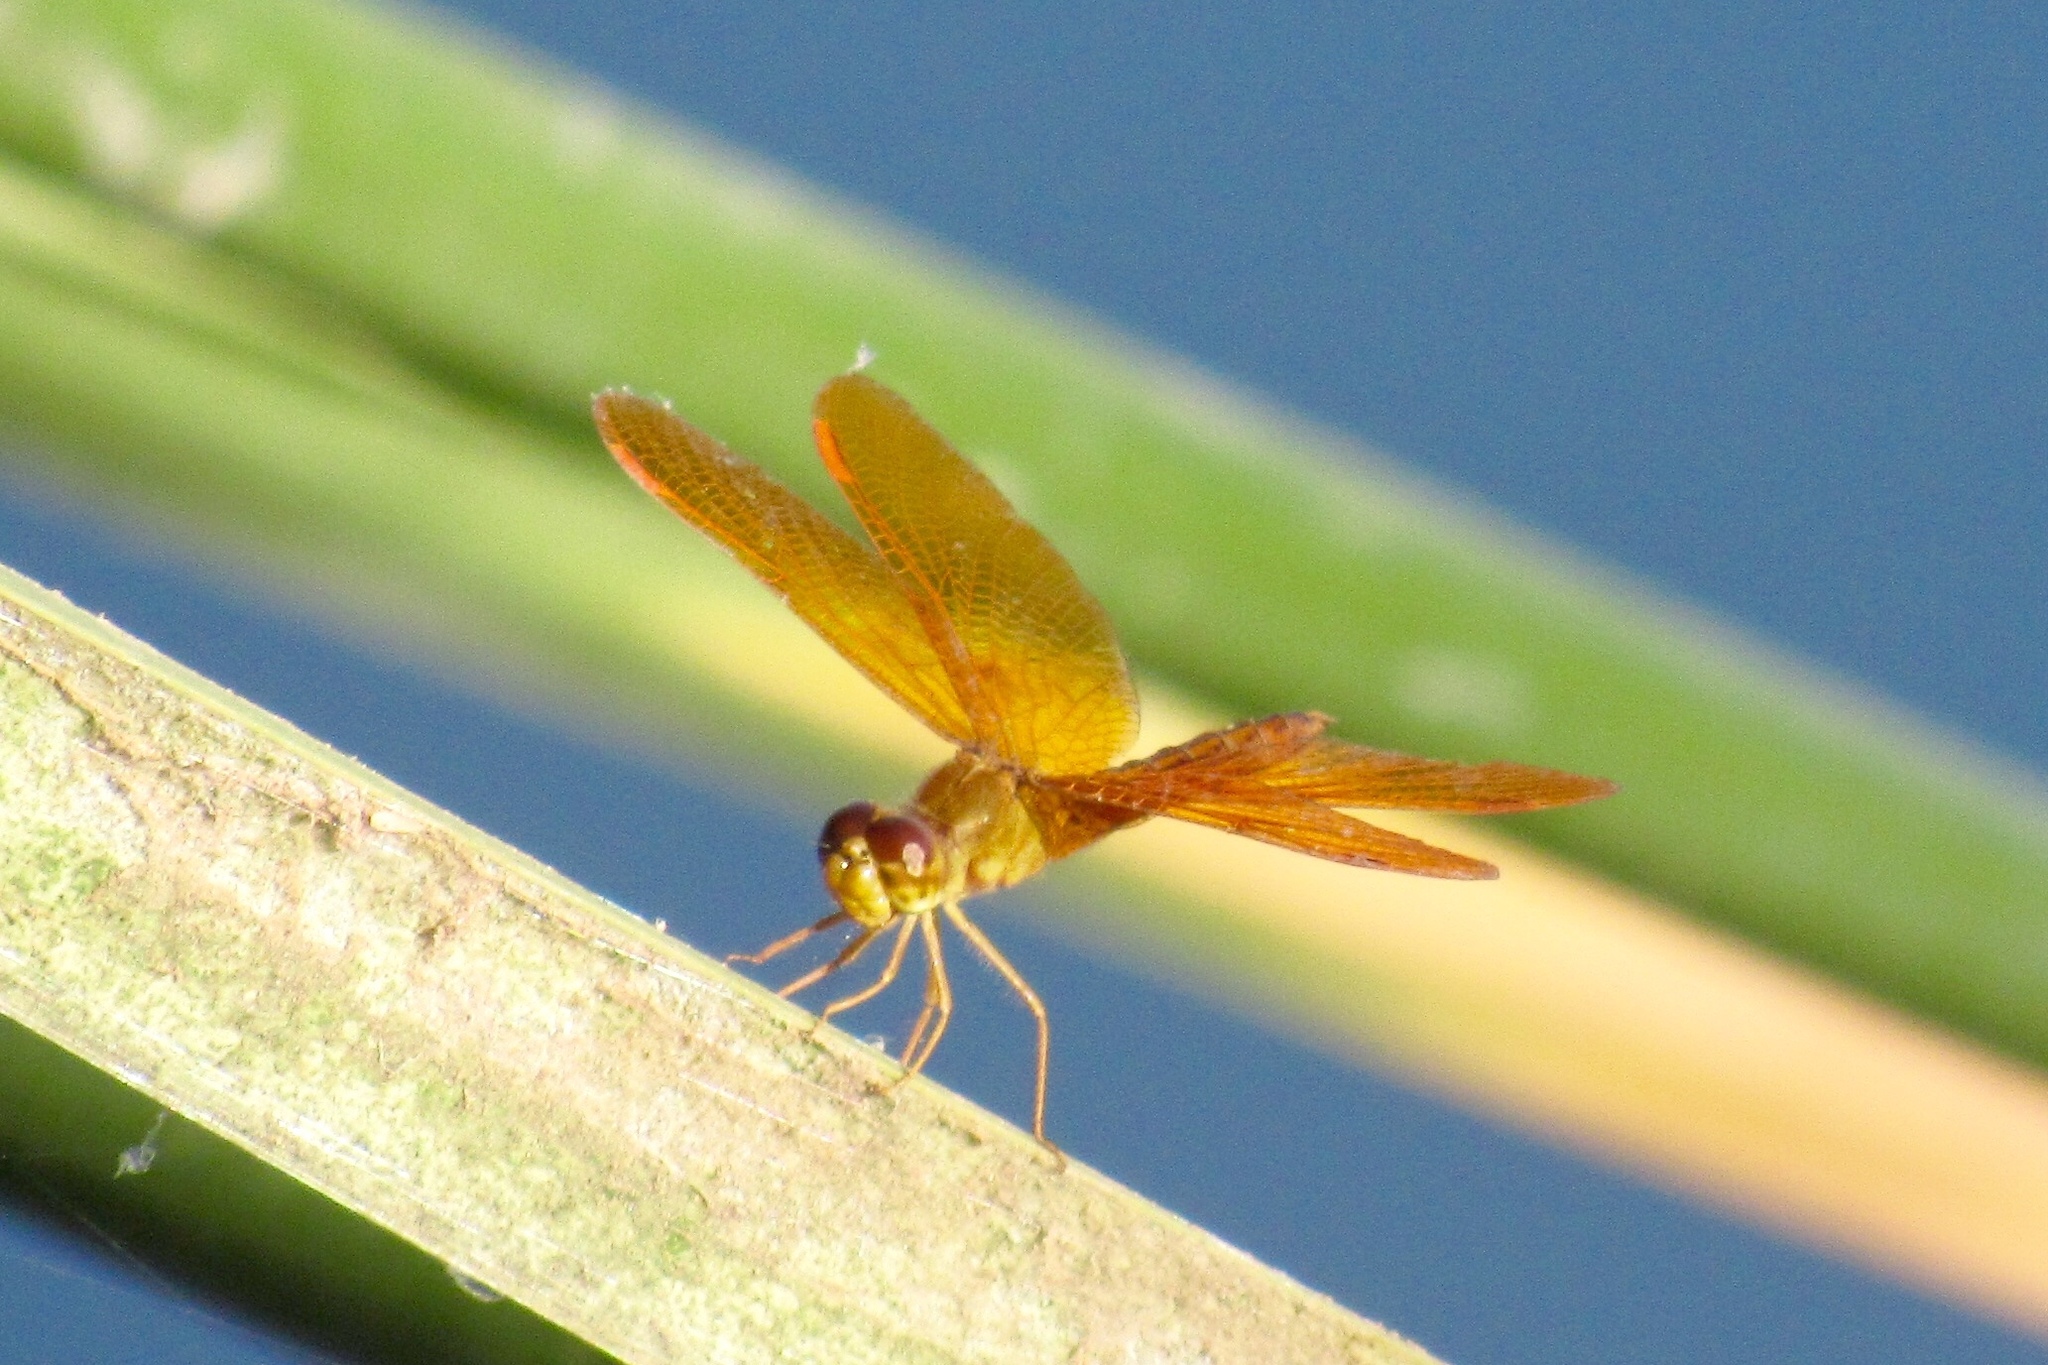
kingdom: Animalia
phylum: Arthropoda
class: Insecta
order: Odonata
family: Libellulidae
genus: Perithemis
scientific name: Perithemis intensa
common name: Mexican amberwing
